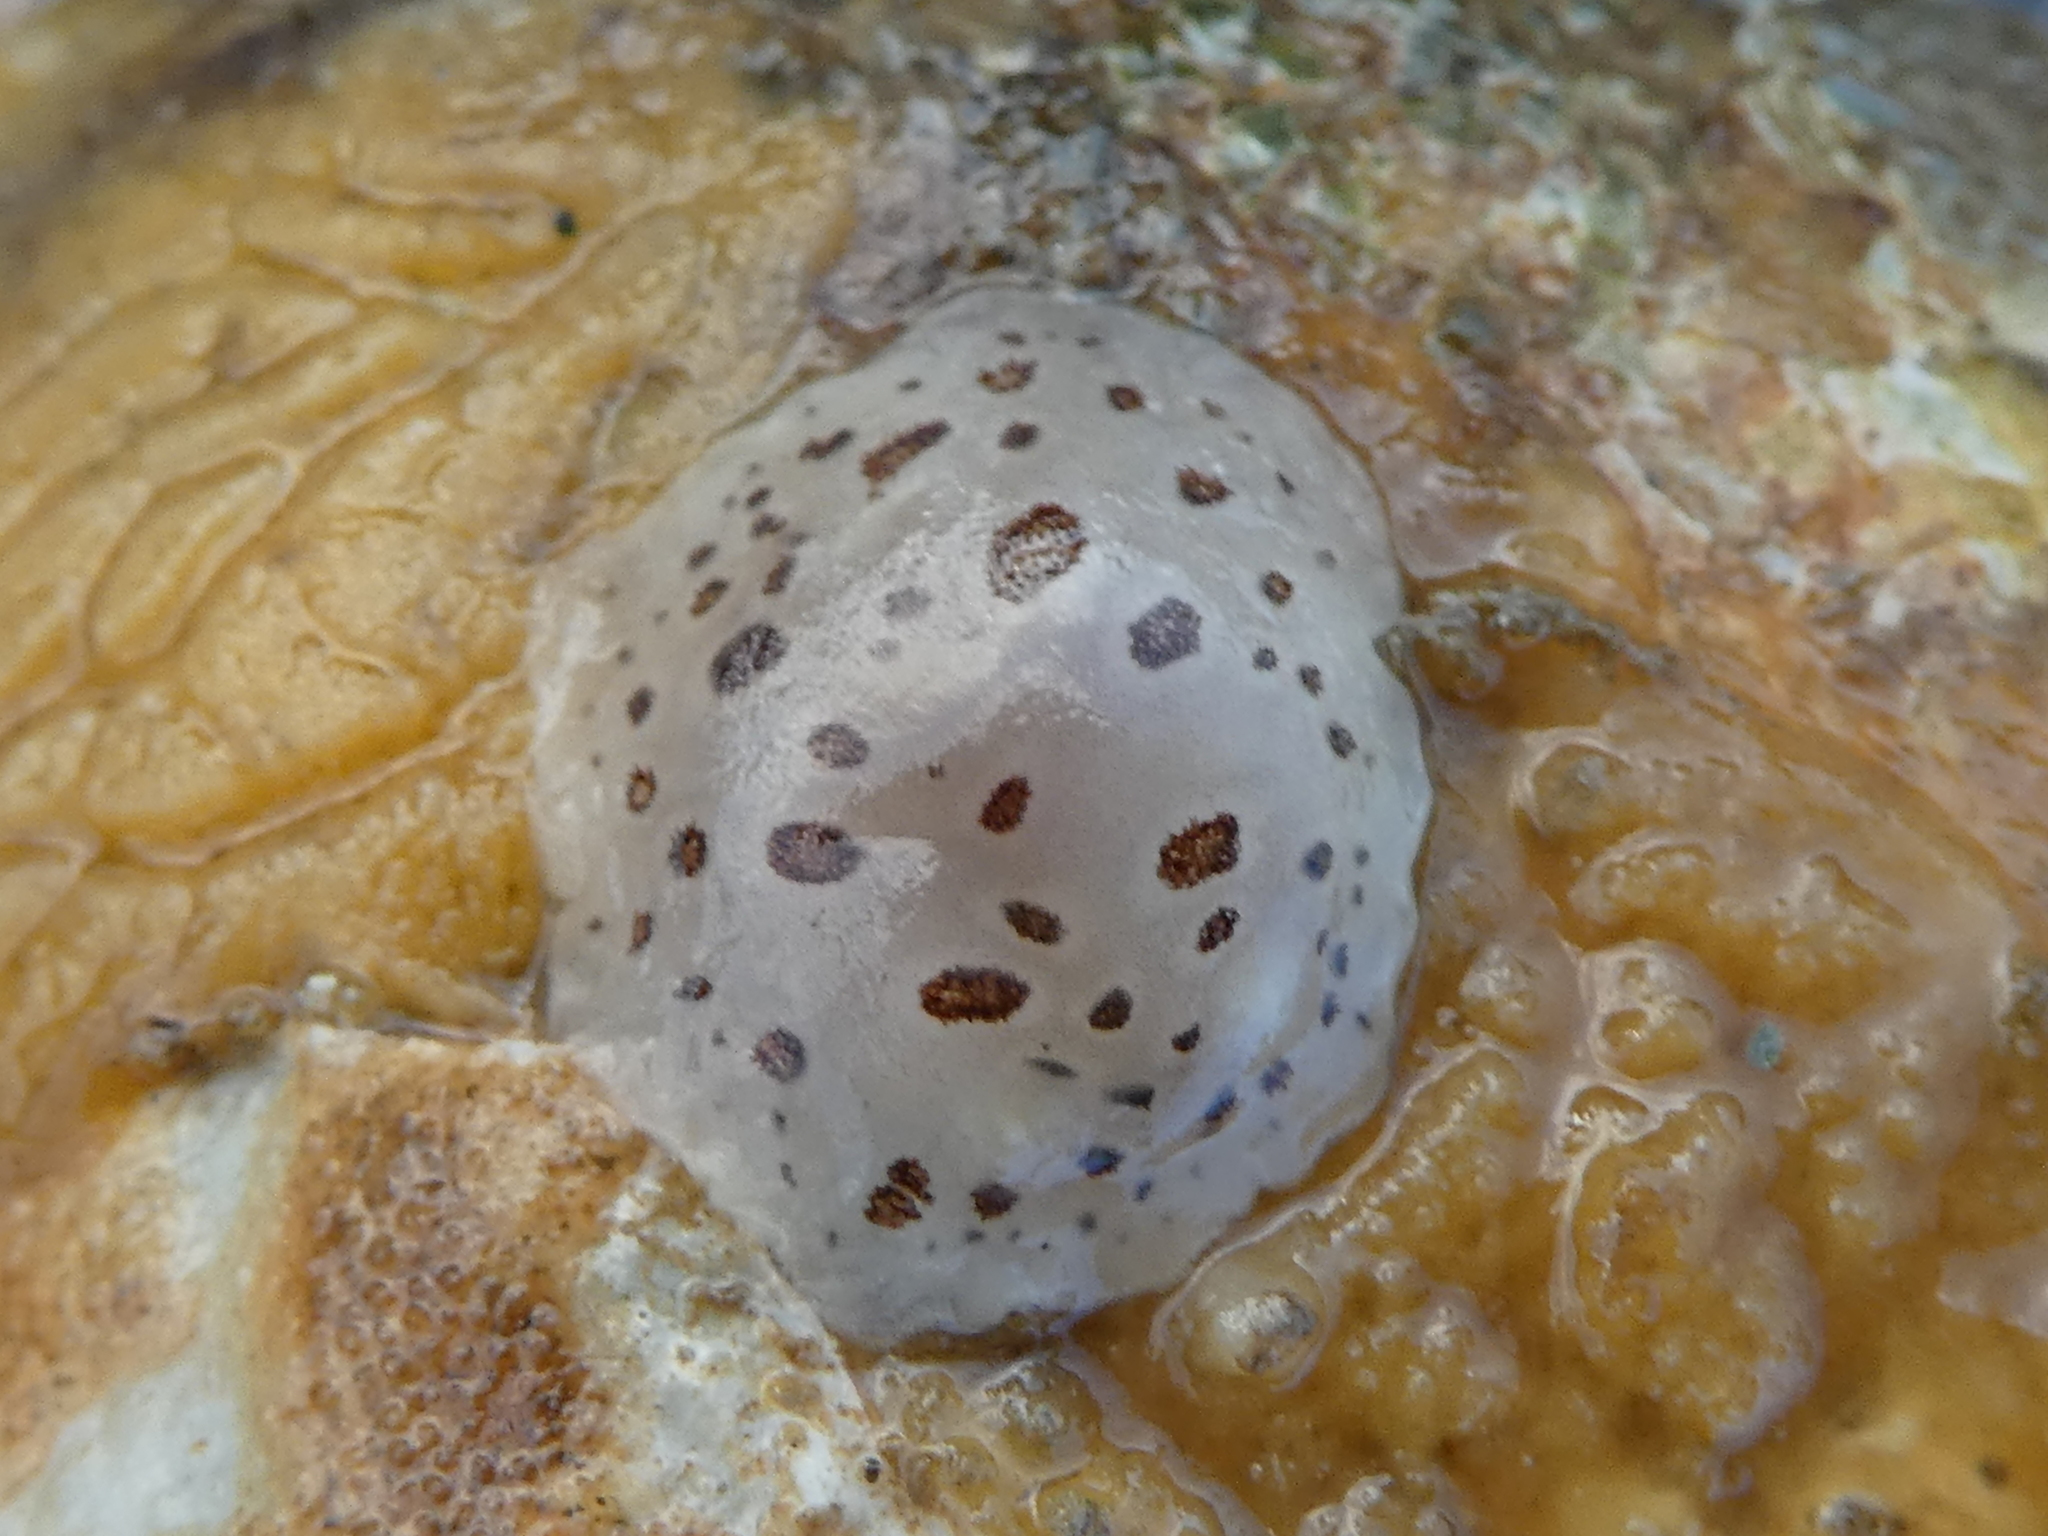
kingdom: Animalia
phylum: Mollusca
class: Gastropoda
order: Nudibranchia
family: Discodorididae
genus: Diaulula
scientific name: Diaulula odonoghuei
